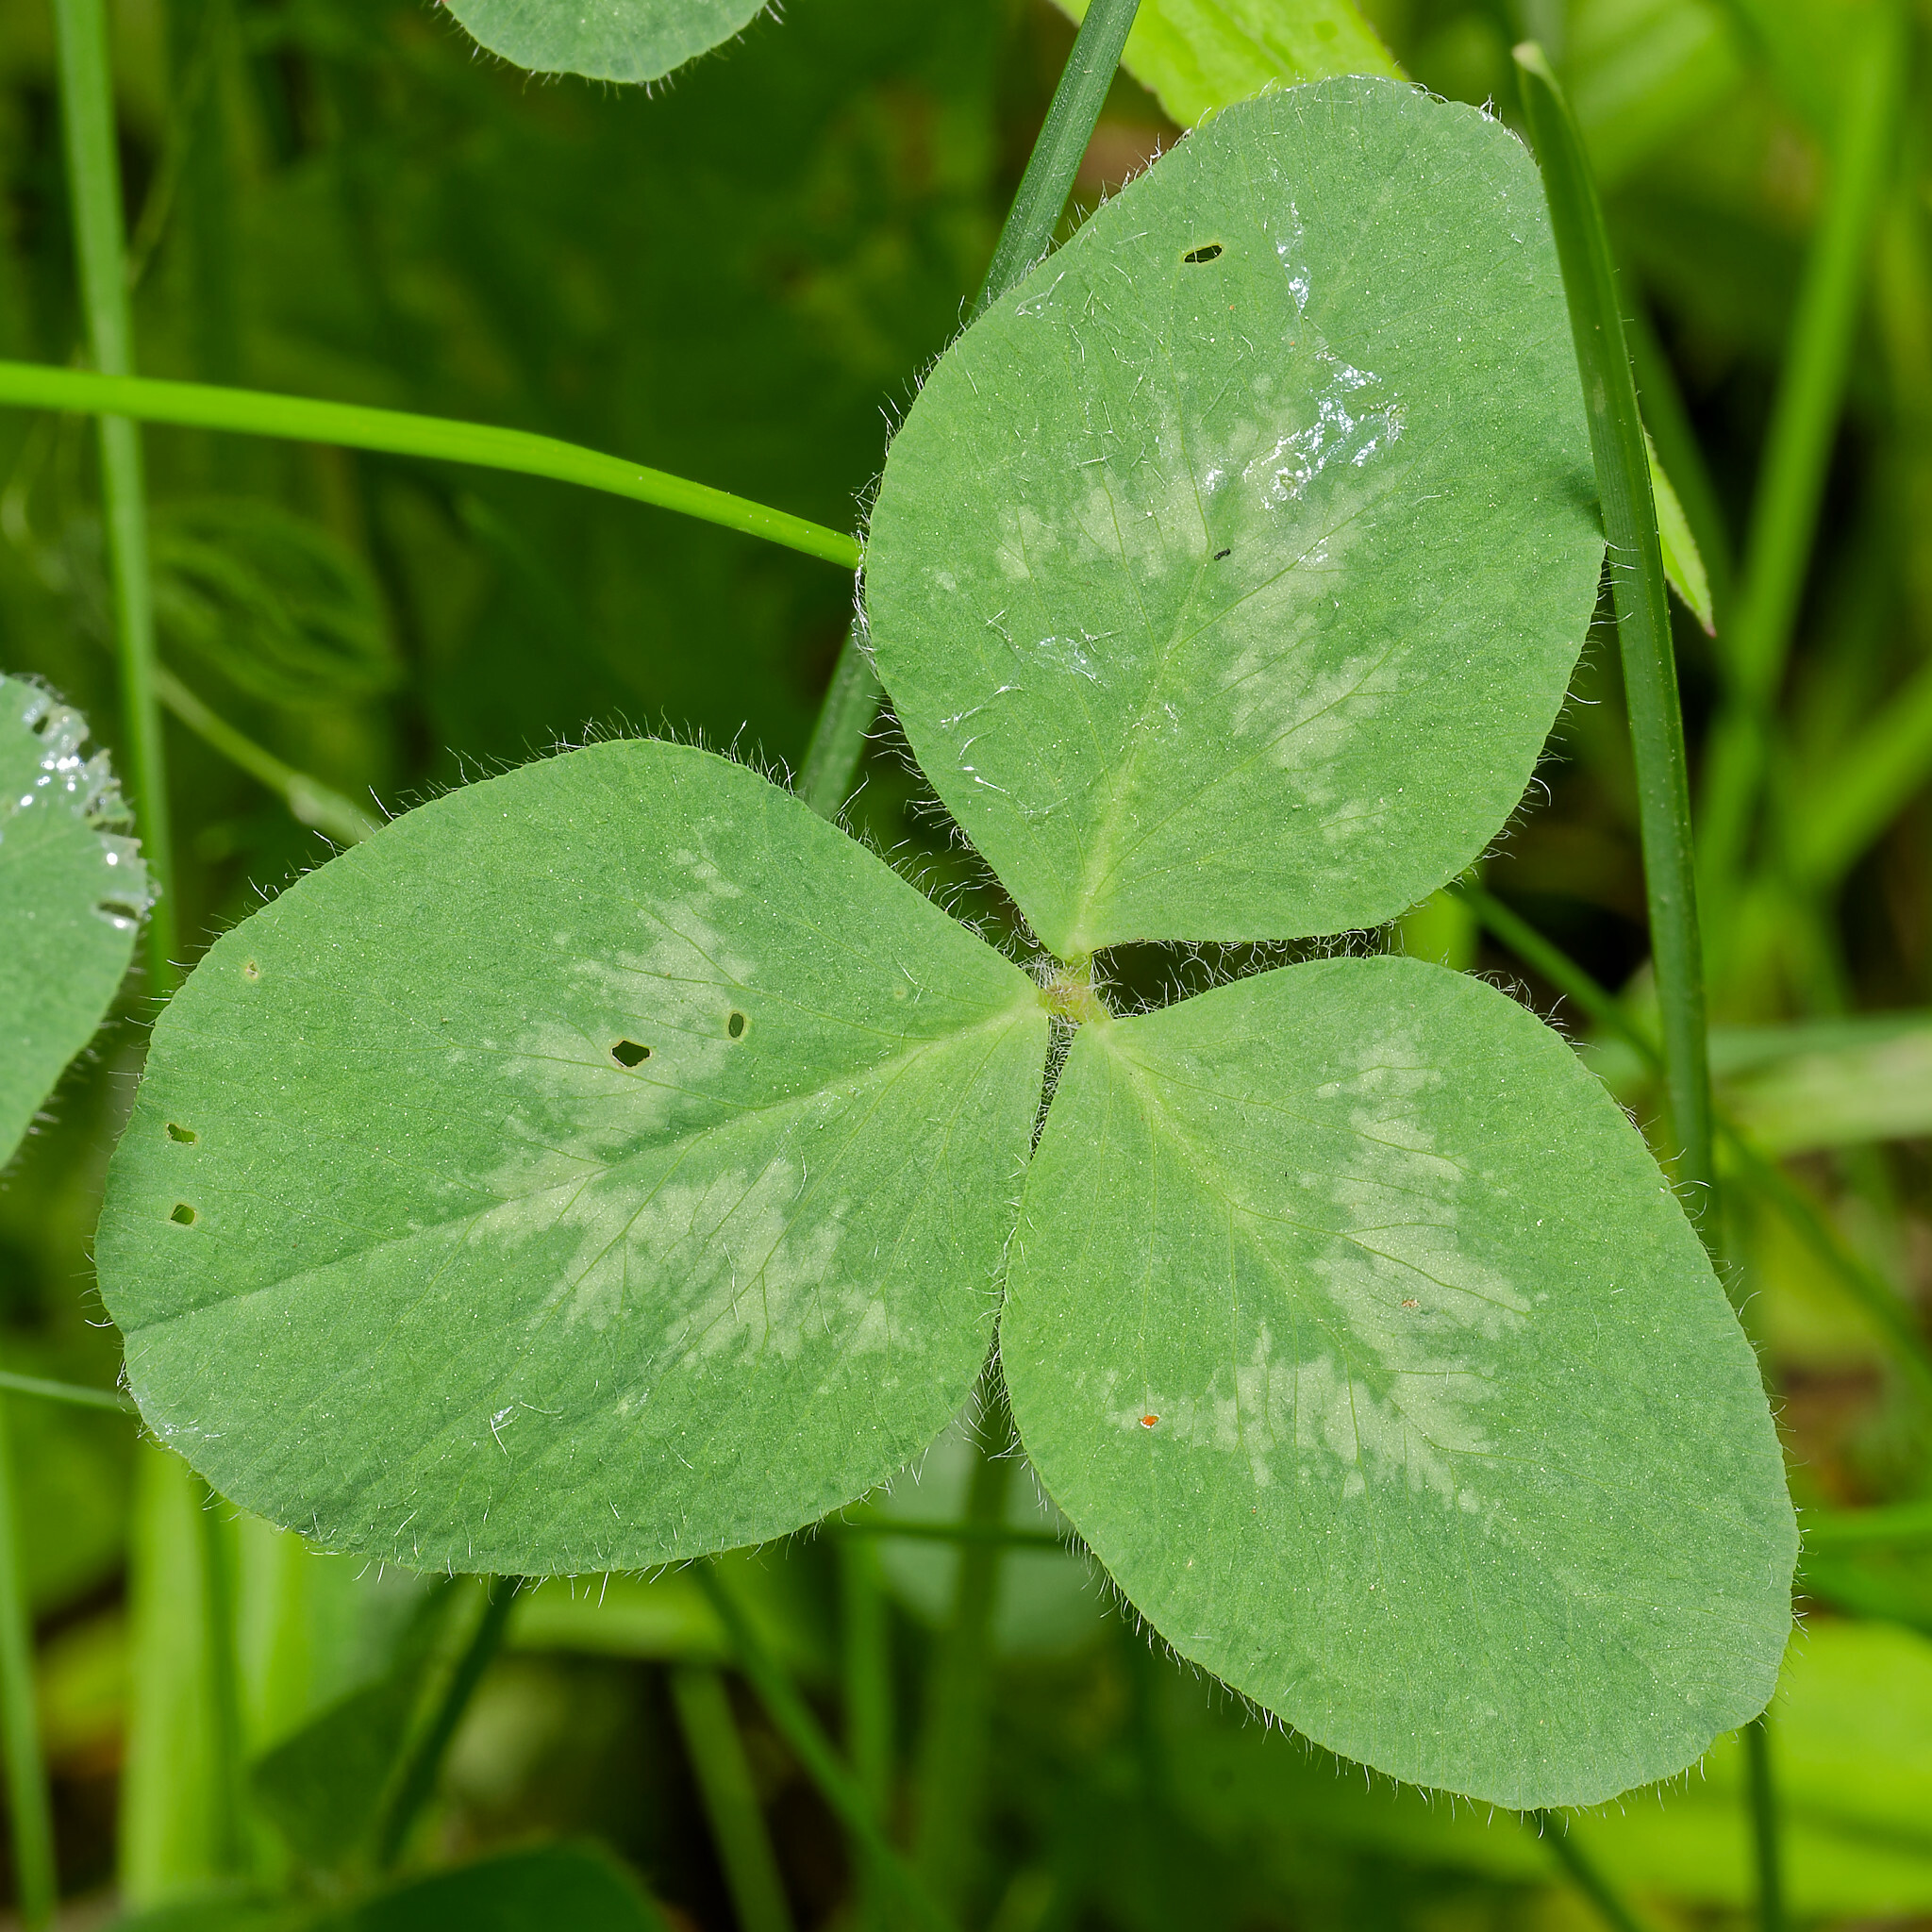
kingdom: Plantae
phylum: Tracheophyta
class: Magnoliopsida
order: Fabales
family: Fabaceae
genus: Trifolium
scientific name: Trifolium pratense
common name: Red clover
